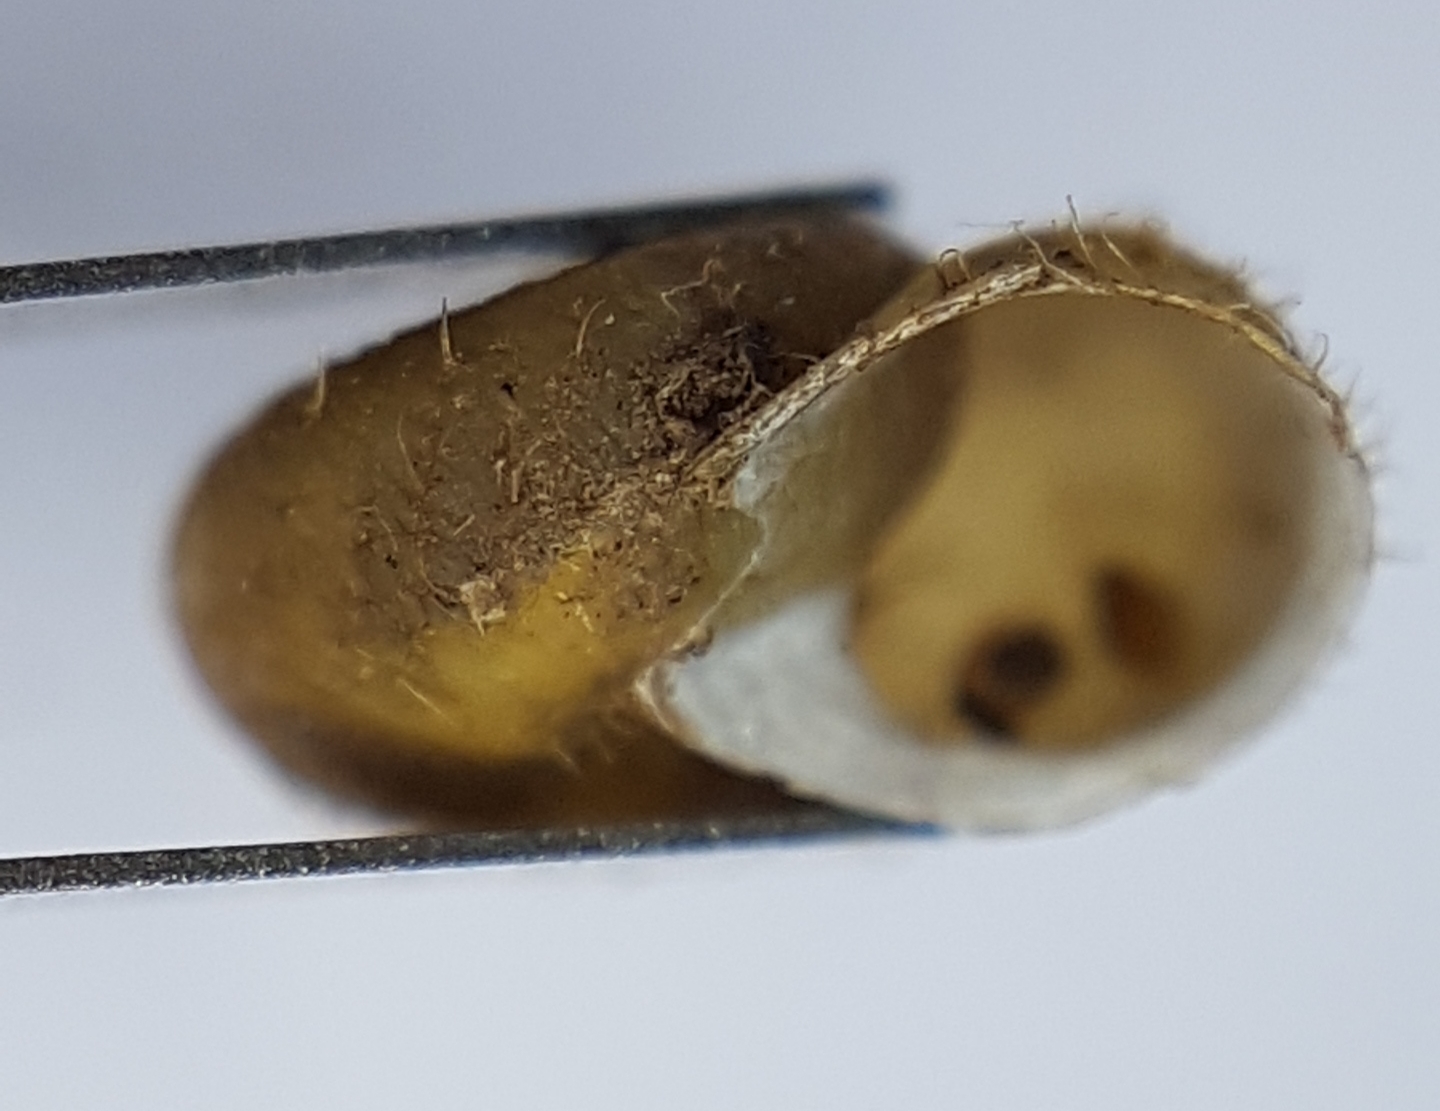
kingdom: Animalia
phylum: Mollusca
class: Gastropoda
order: Stylommatophora
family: Geomitridae
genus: Ponentina
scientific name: Ponentina platylasia
